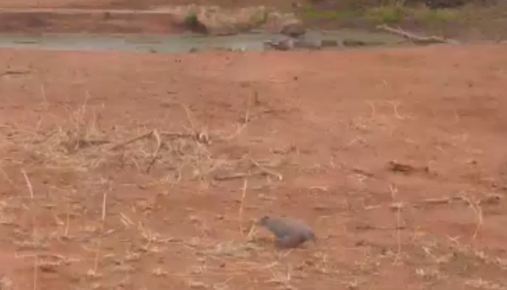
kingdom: Animalia
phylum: Chordata
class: Aves
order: Columbiformes
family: Columbidae
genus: Spilopelia
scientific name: Spilopelia senegalensis
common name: Laughing dove
